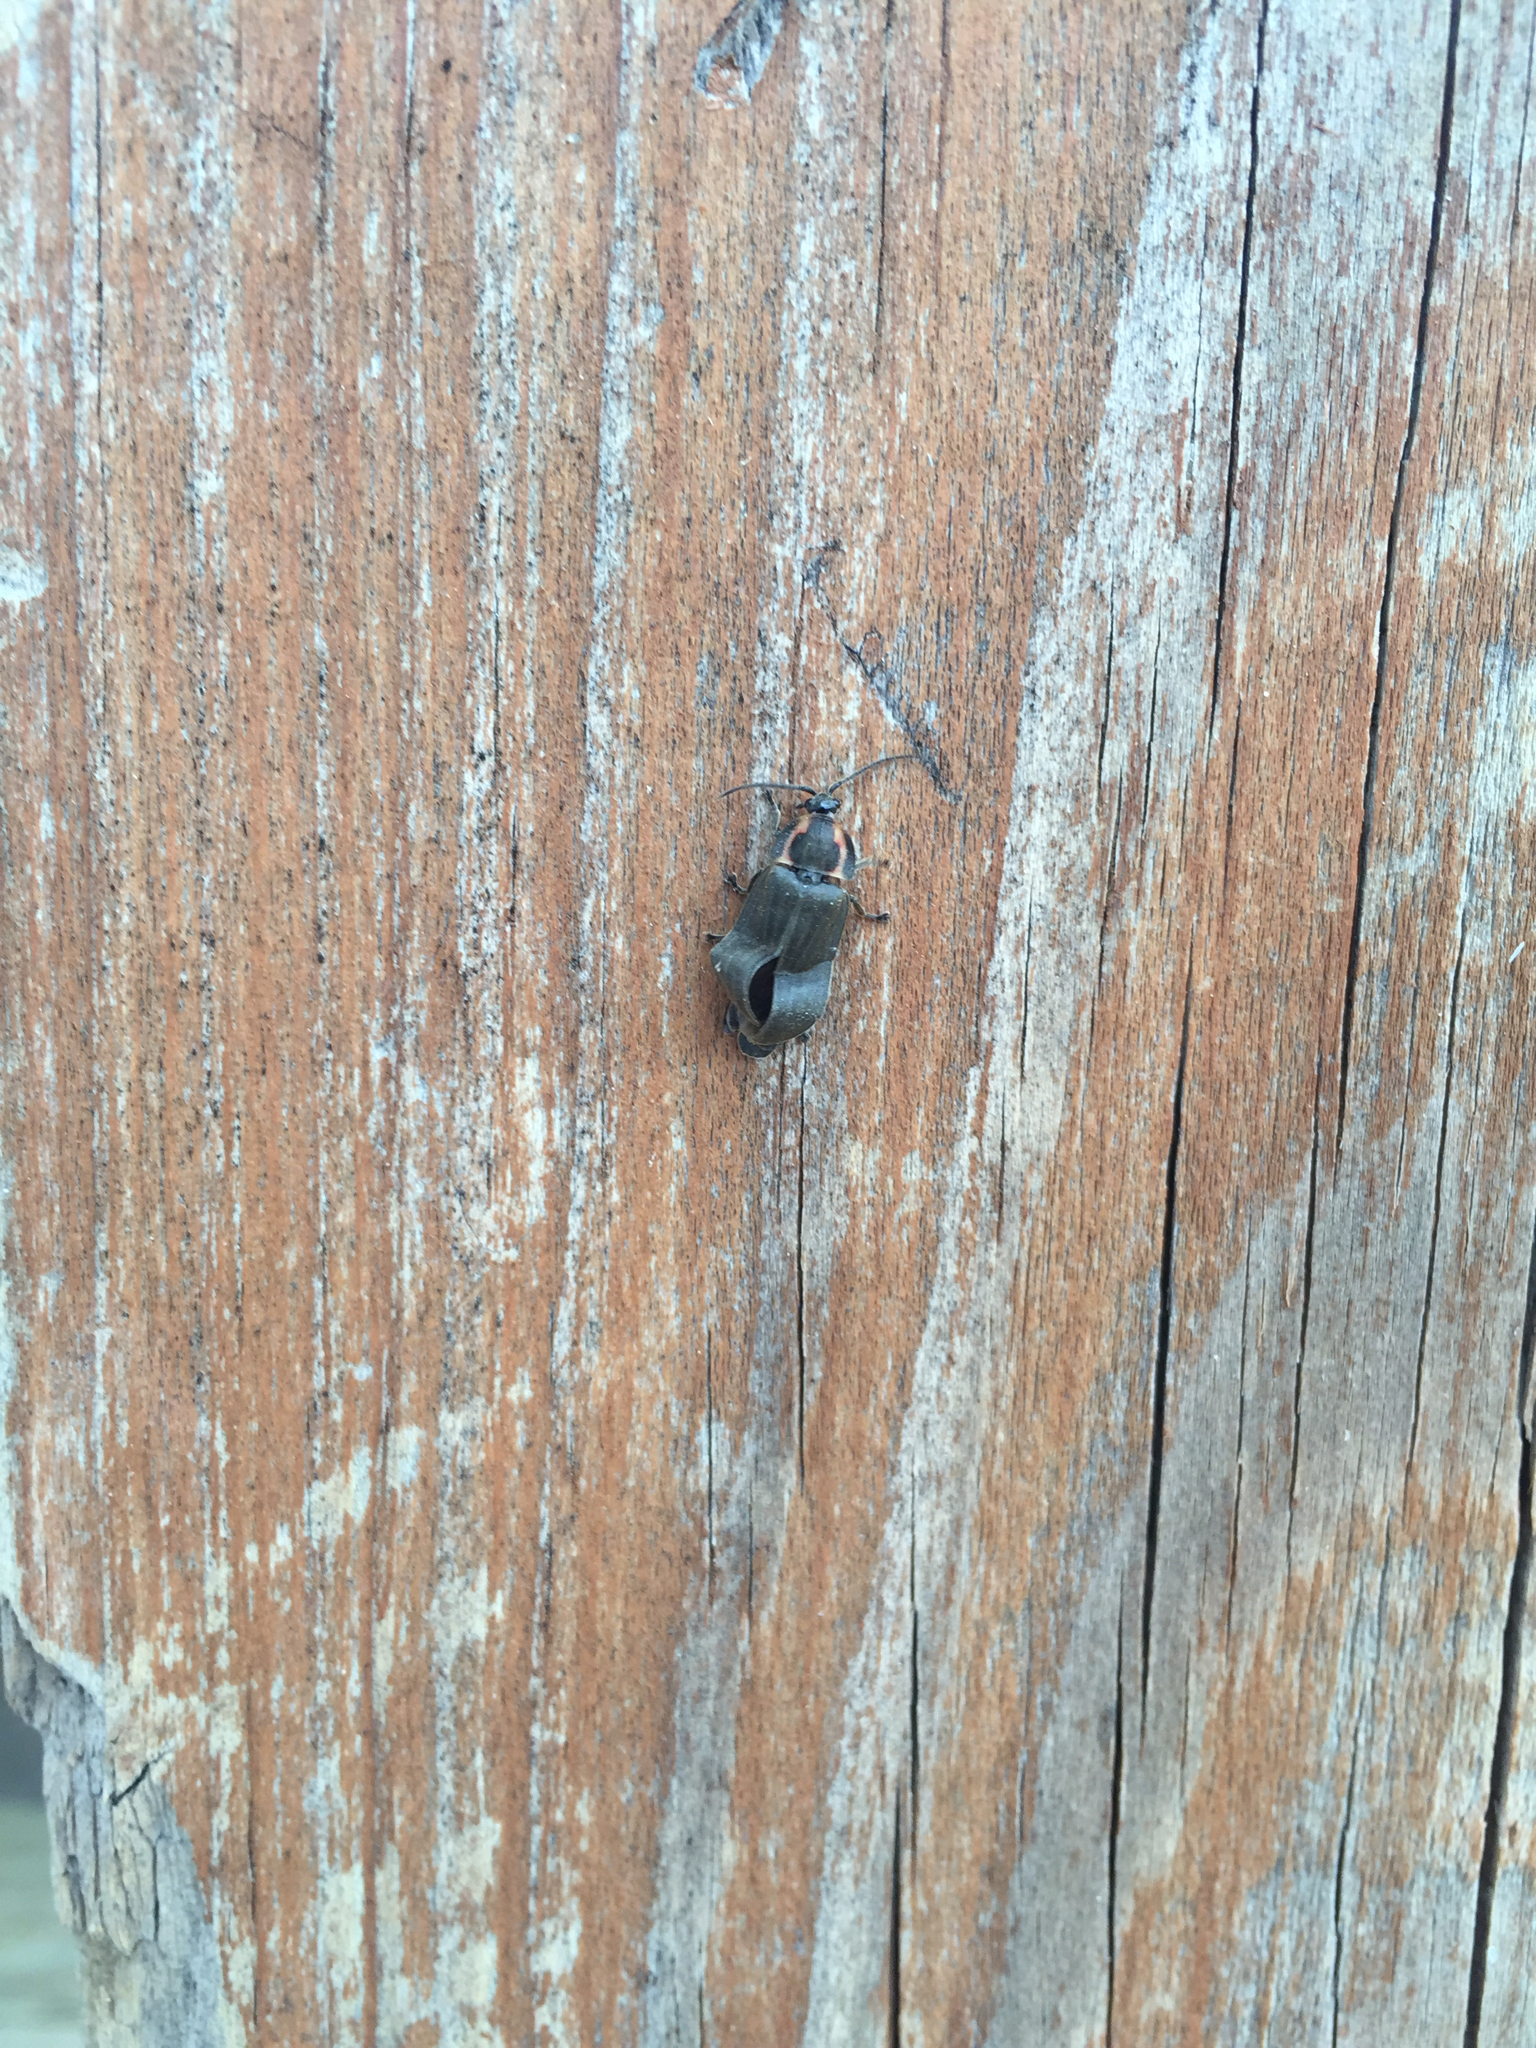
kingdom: Animalia
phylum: Arthropoda
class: Insecta
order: Coleoptera
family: Lampyridae
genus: Photinus
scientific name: Photinus corrusca
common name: Winter firefly
